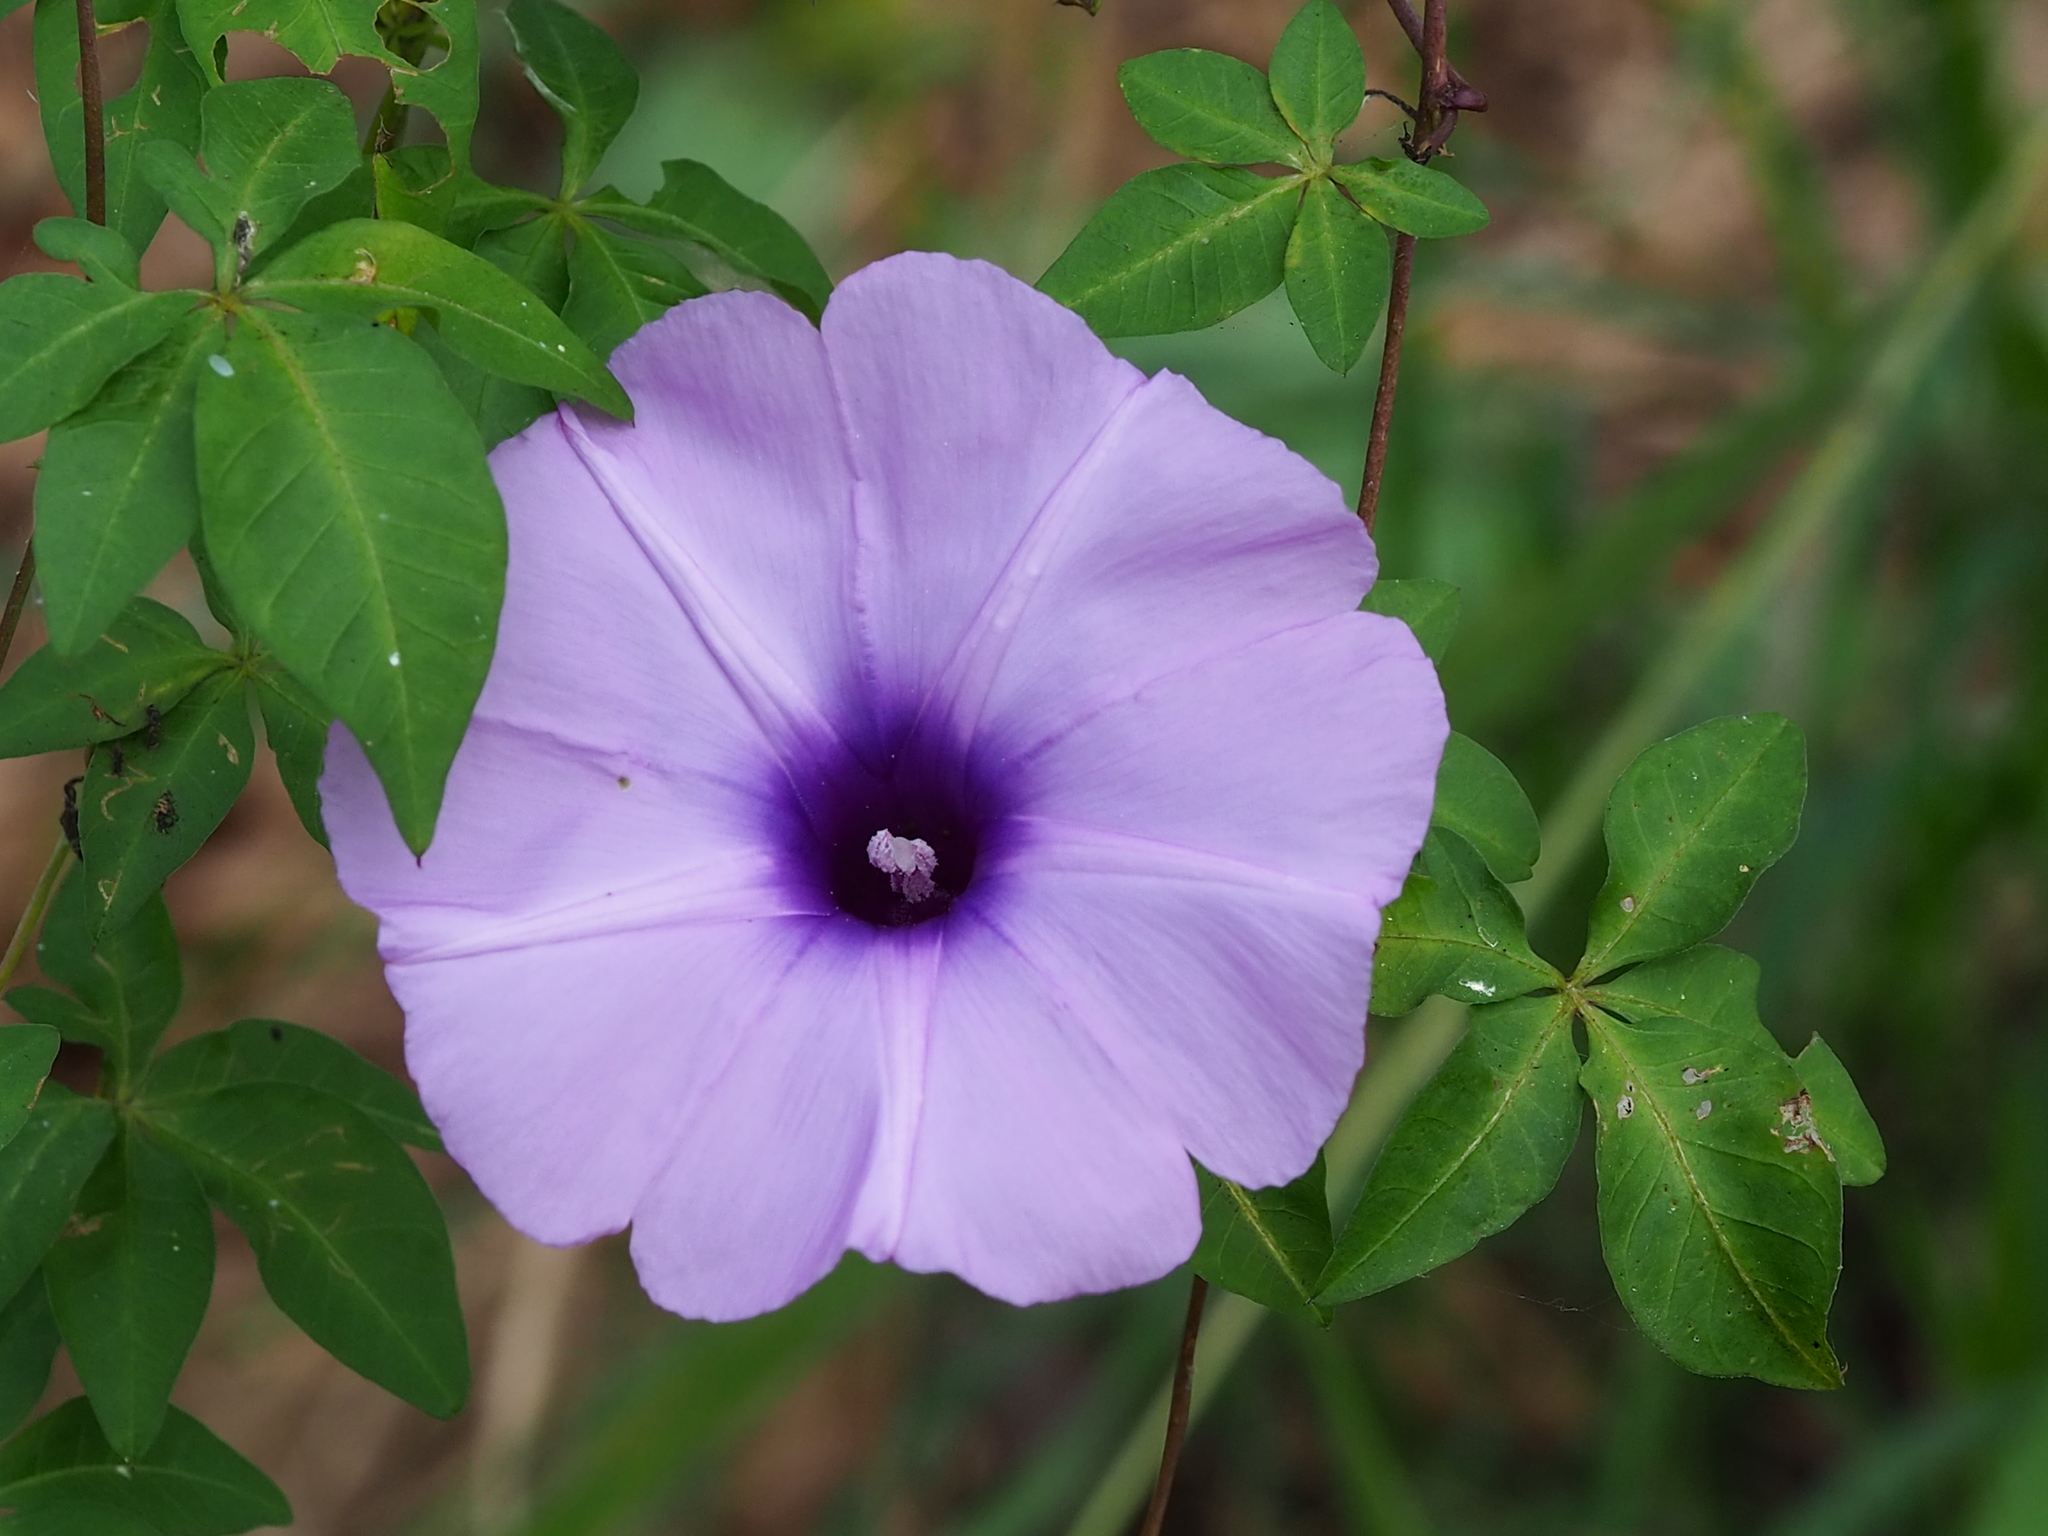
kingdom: Plantae
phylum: Tracheophyta
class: Magnoliopsida
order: Solanales
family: Convolvulaceae
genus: Ipomoea
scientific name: Ipomoea cairica
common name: Mile a minute vine
